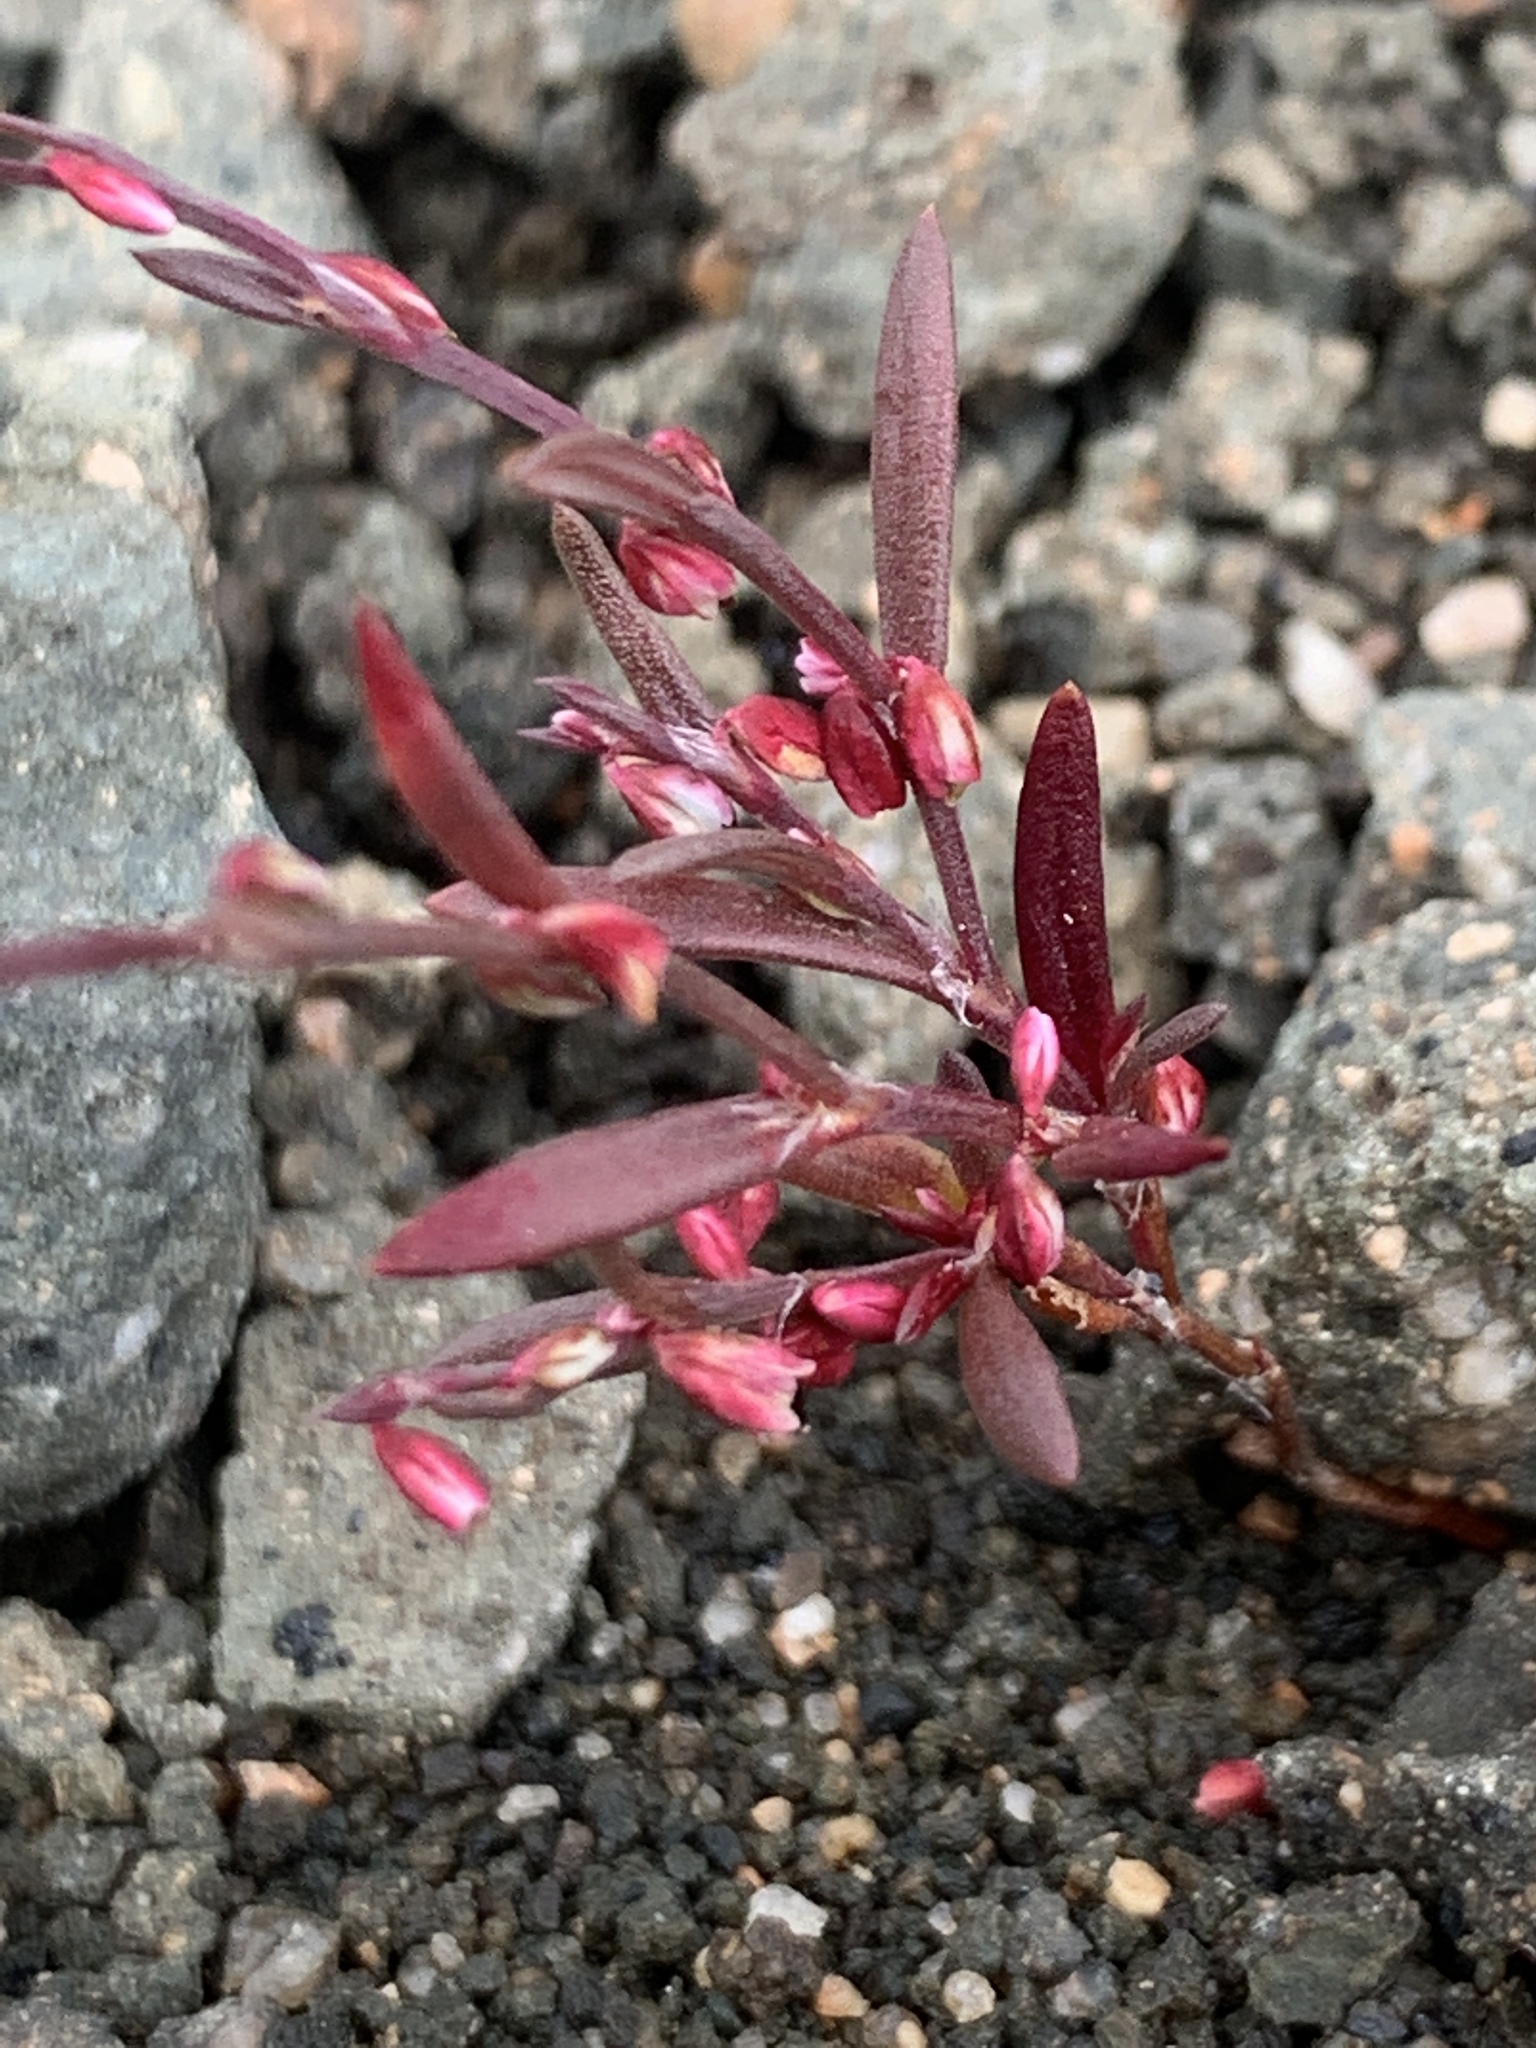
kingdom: Plantae
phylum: Tracheophyta
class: Magnoliopsida
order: Caryophyllales
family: Polygonaceae
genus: Polygonum
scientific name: Polygonum engelmannii
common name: Engelmann's knotweed
